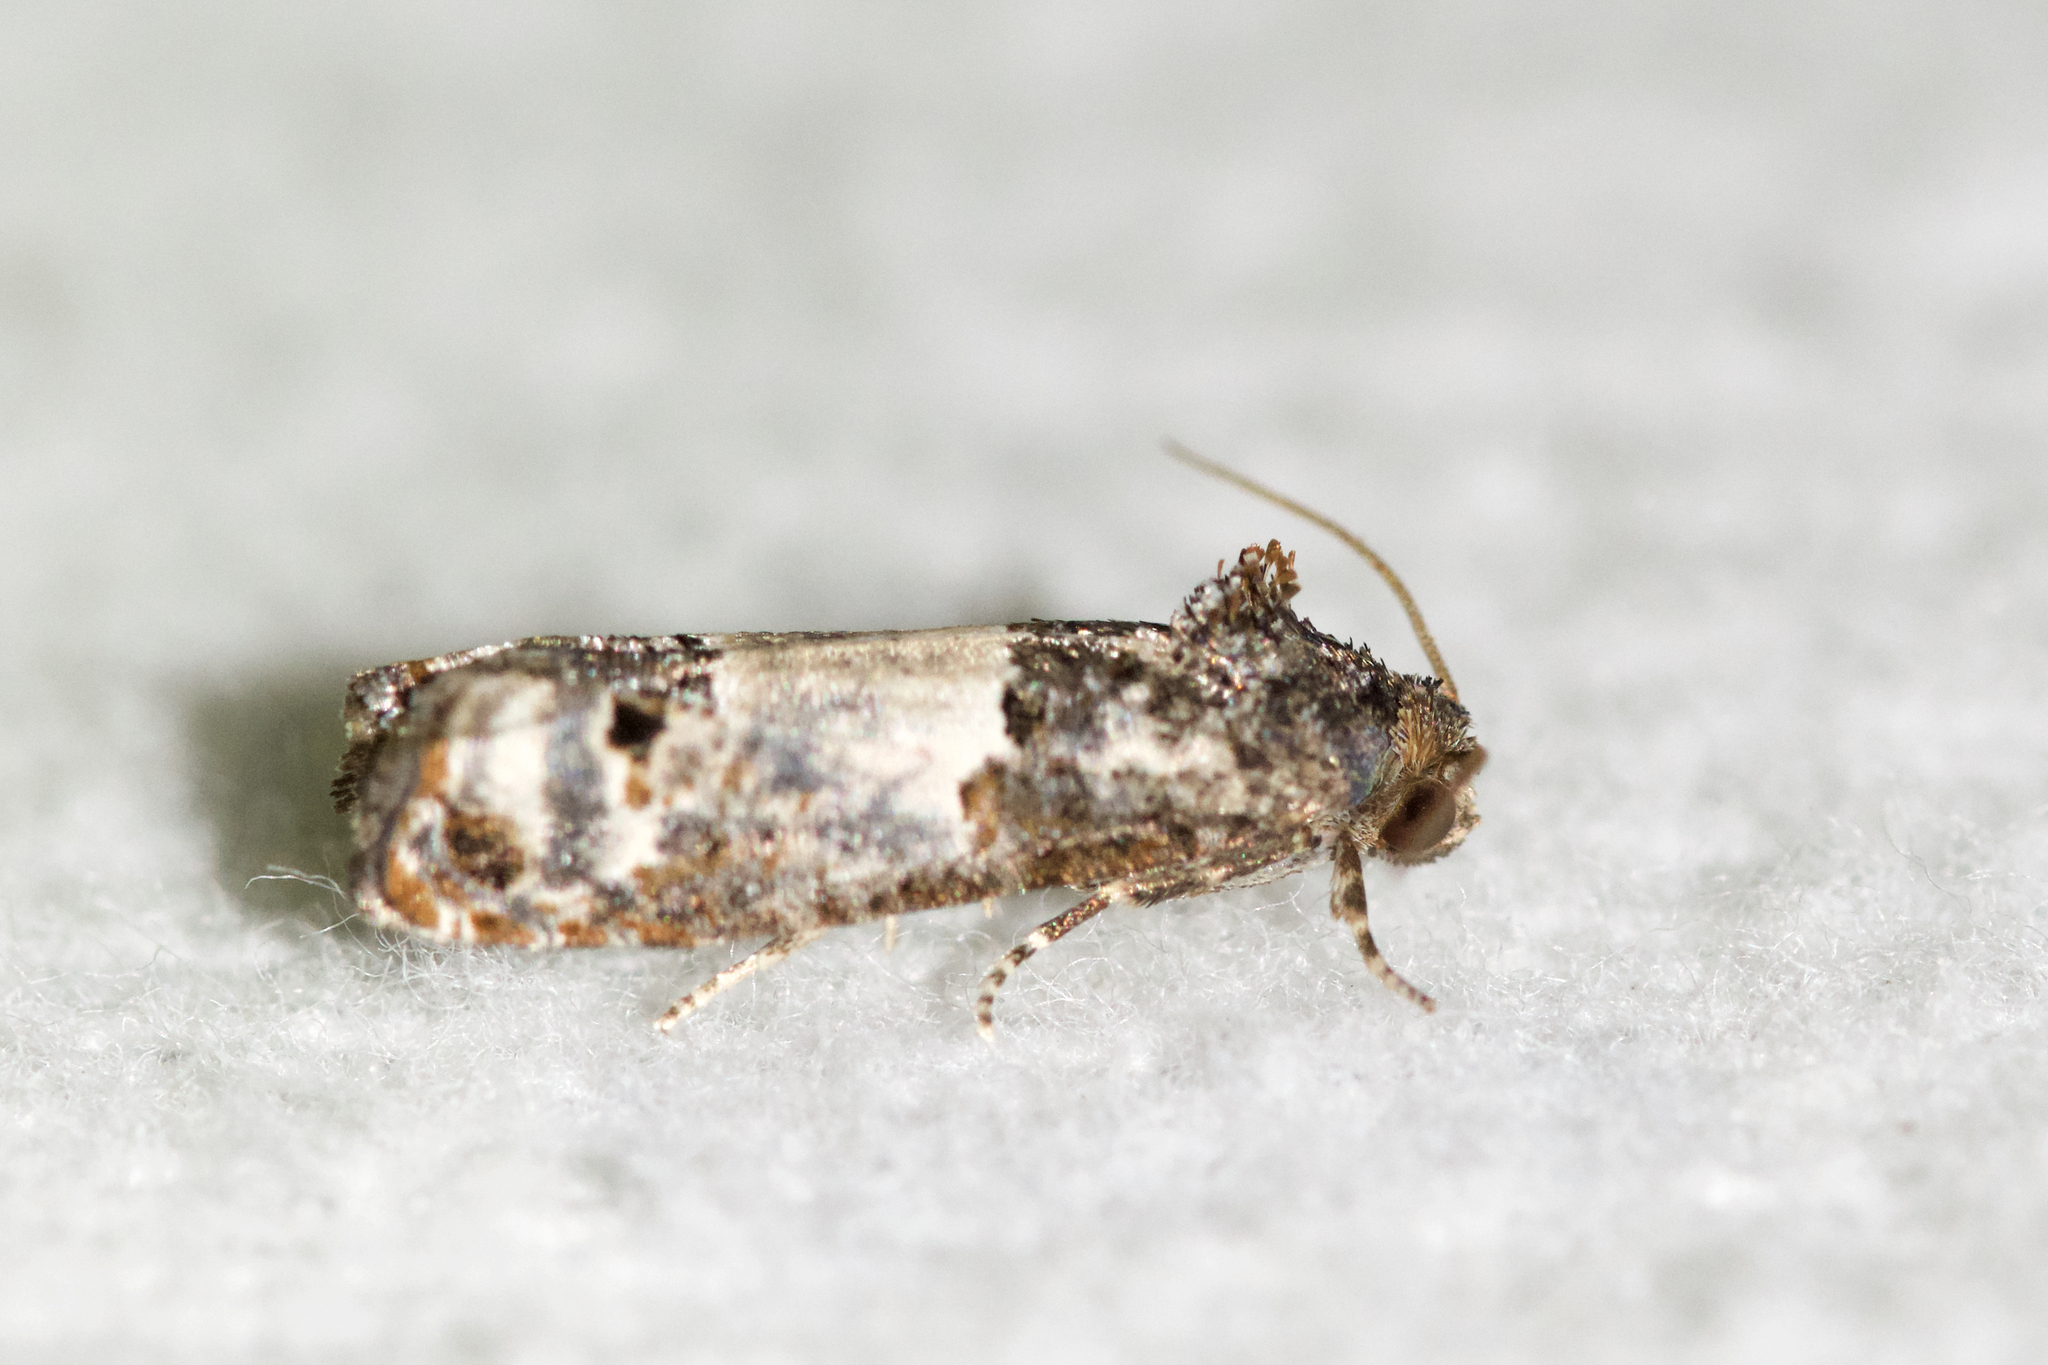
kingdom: Animalia
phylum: Arthropoda
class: Insecta
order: Lepidoptera
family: Tortricidae
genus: Epiblema
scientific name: Epiblema carolinana
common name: Gray-blotched epiblema moth
